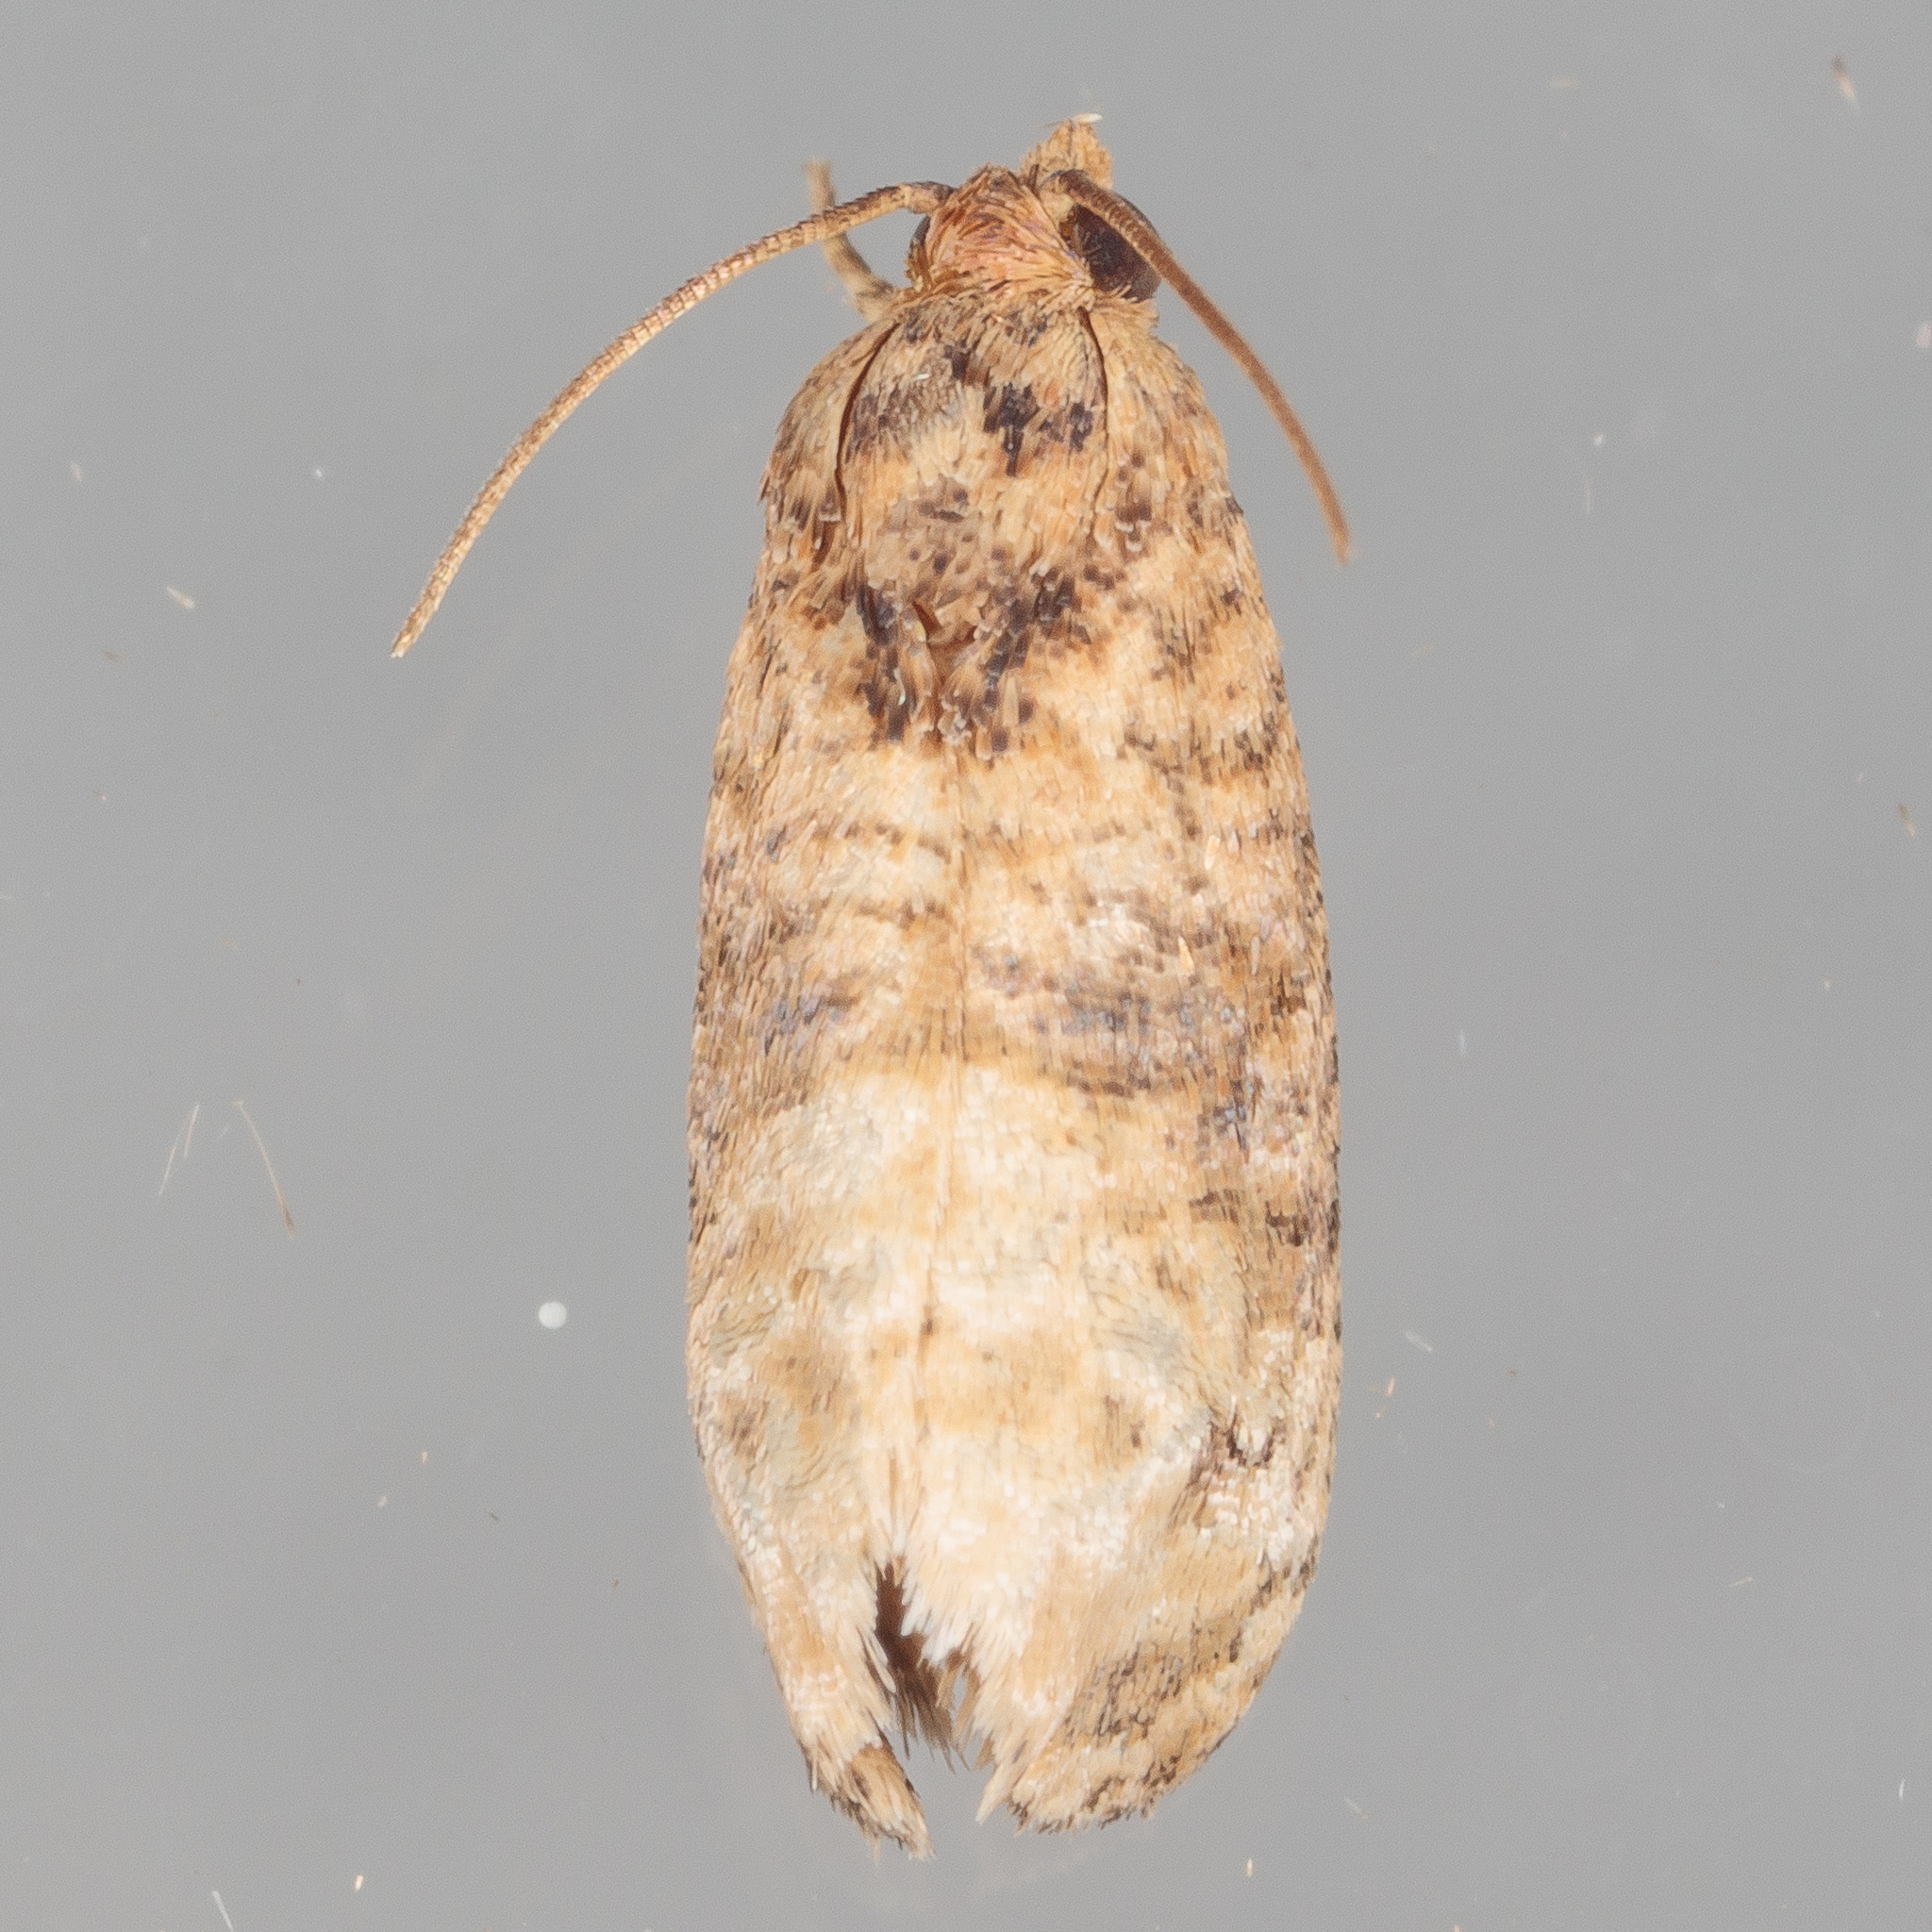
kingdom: Animalia
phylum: Arthropoda
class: Insecta
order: Lepidoptera
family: Tortricidae
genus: Ecdytolopha
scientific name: Ecdytolopha mana
